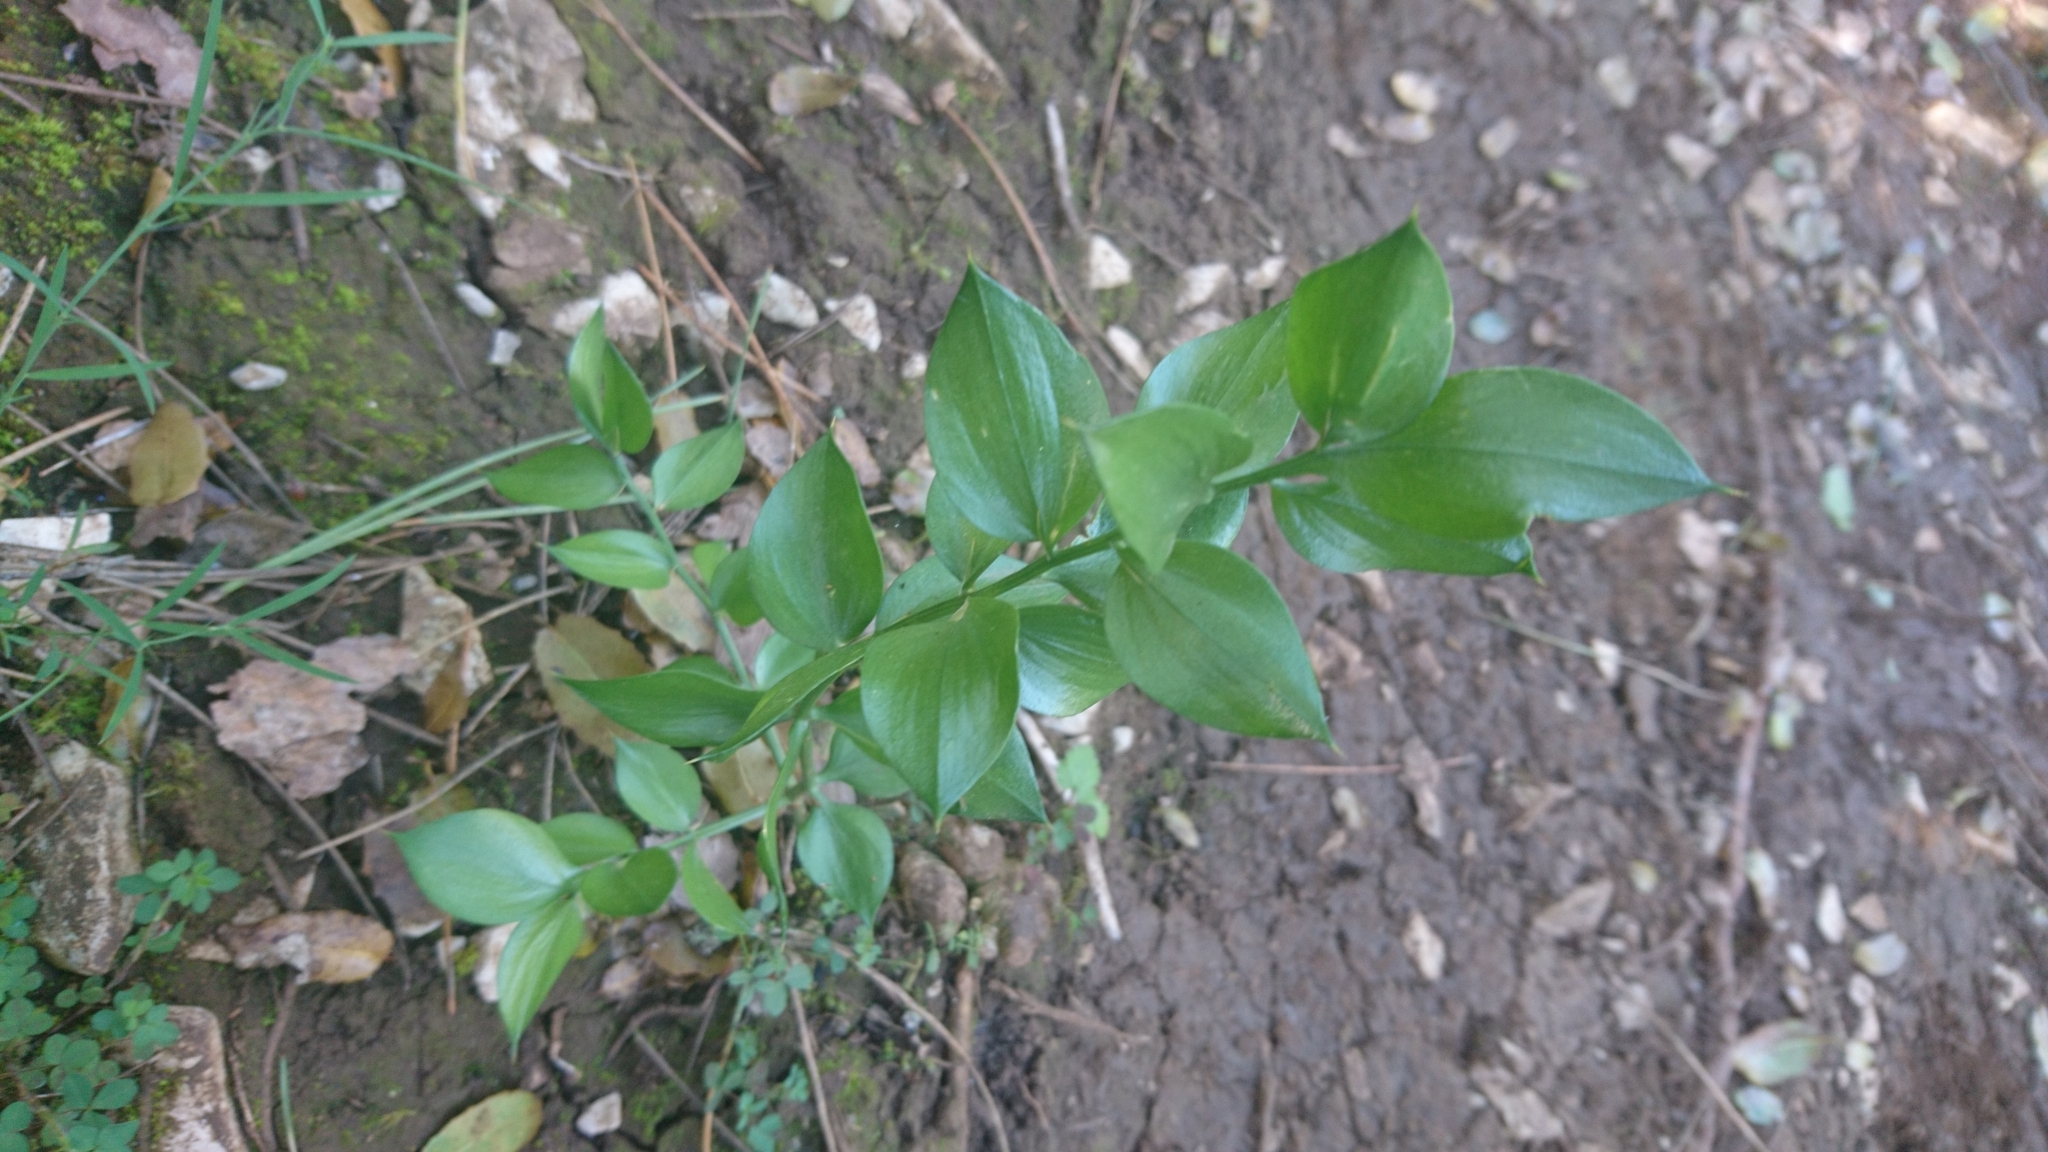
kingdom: Plantae
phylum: Tracheophyta
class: Liliopsida
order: Asparagales
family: Asparagaceae
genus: Ruscus
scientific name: Ruscus aculeatus
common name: Butcher's-broom
